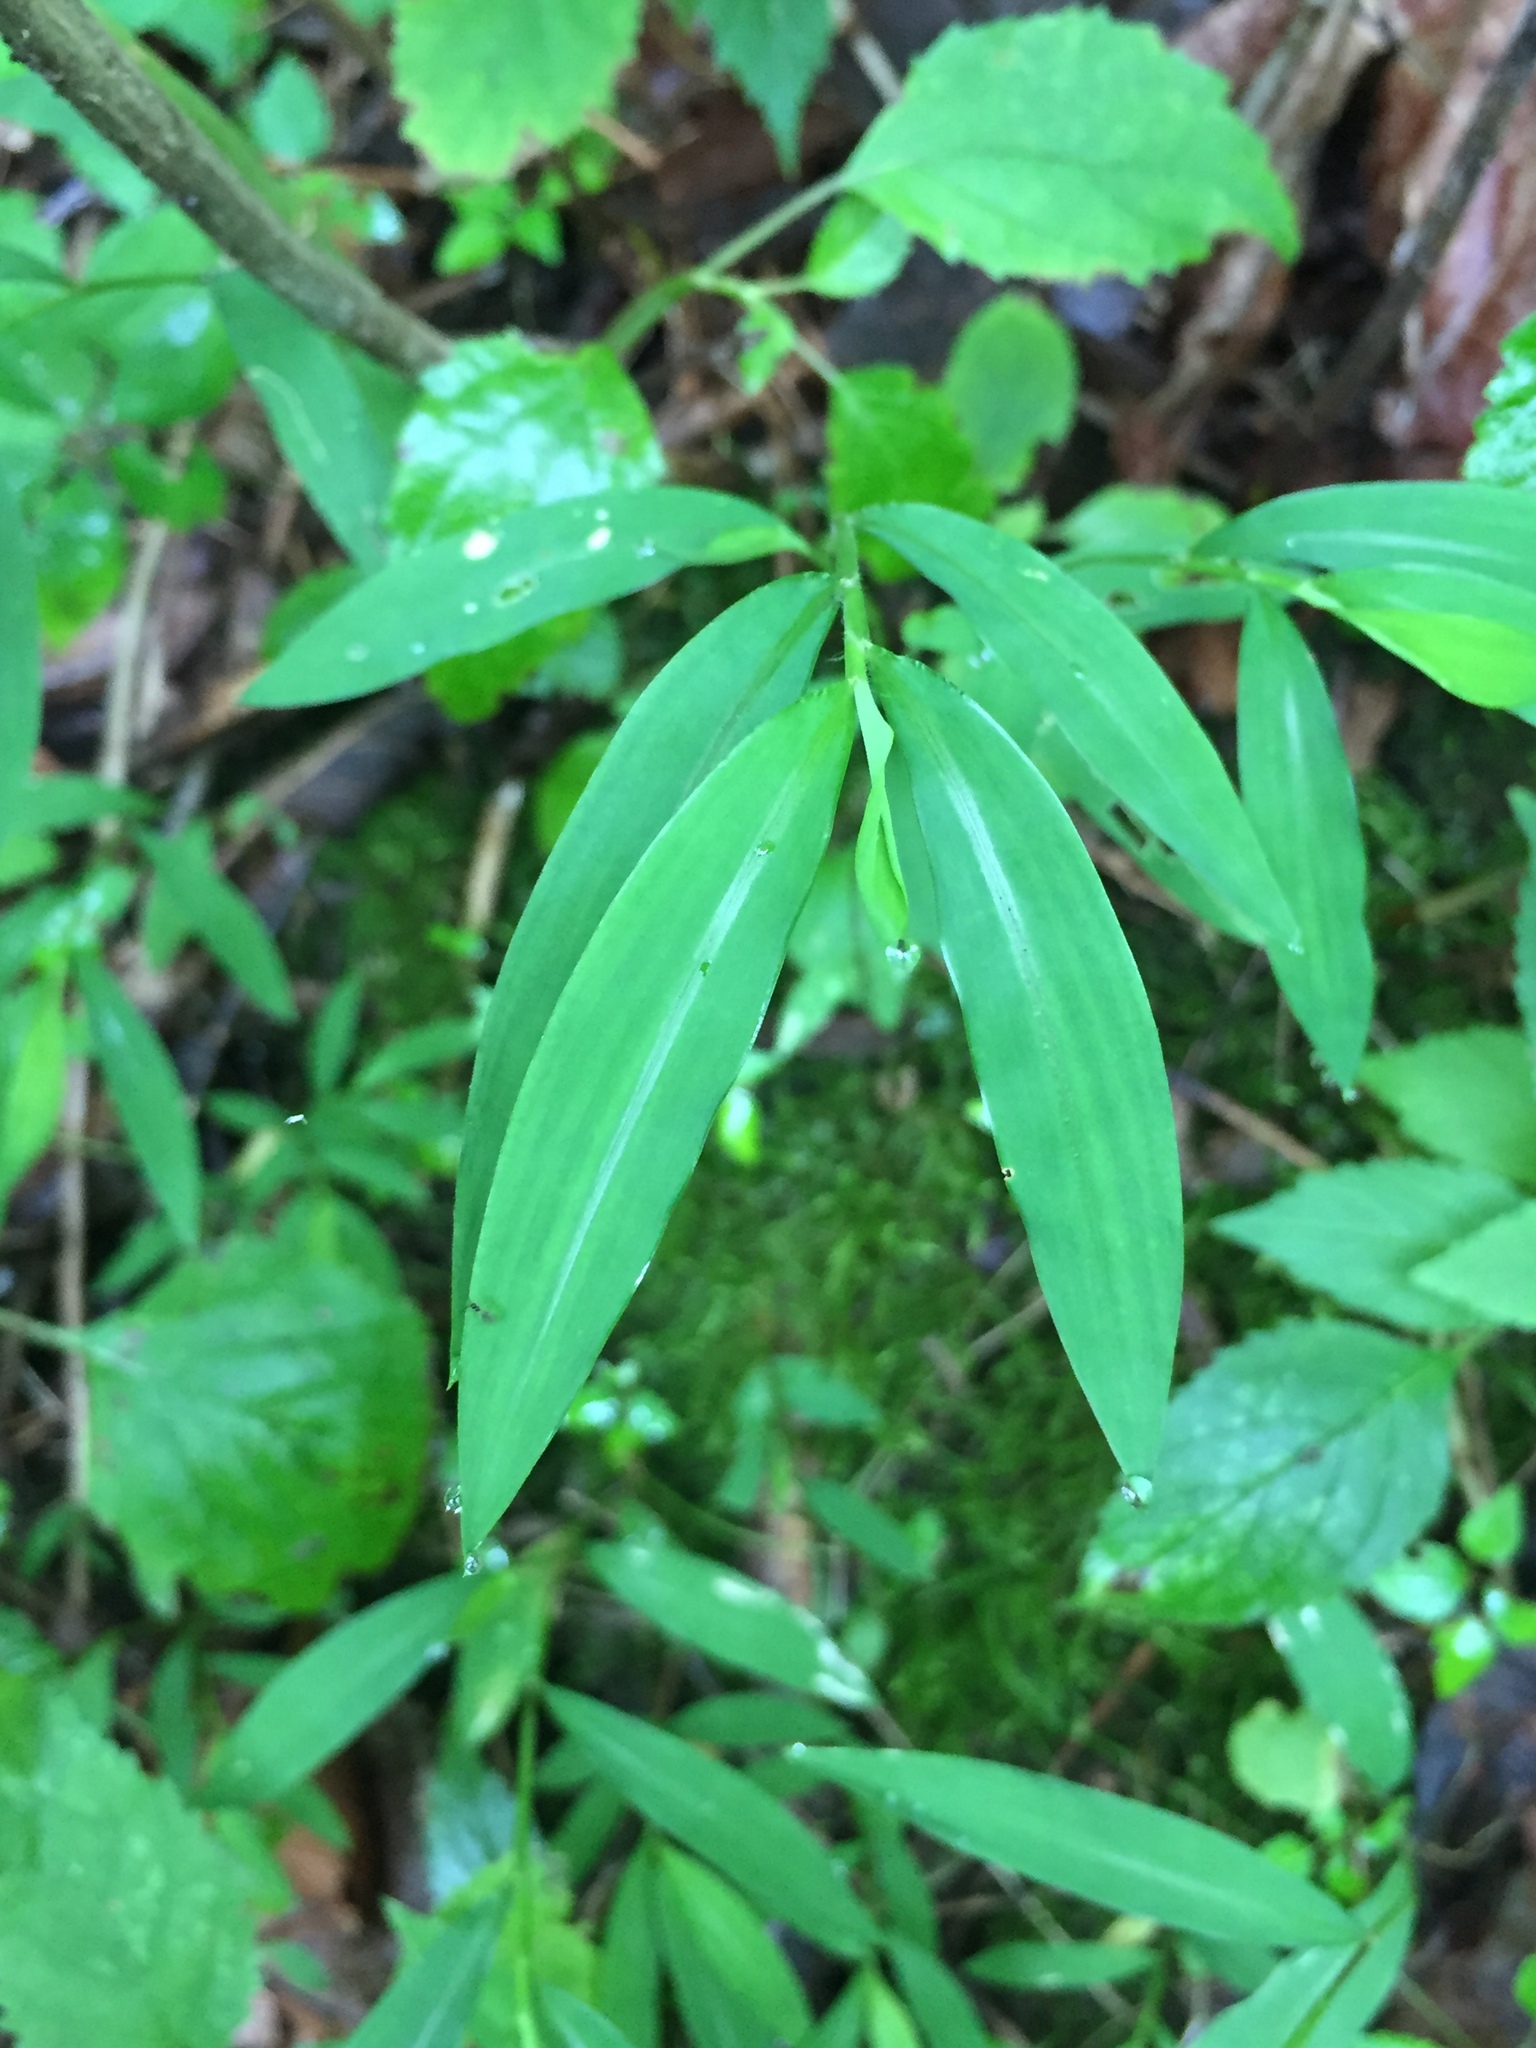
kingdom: Plantae
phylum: Tracheophyta
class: Liliopsida
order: Poales
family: Poaceae
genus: Microstegium
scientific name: Microstegium vimineum
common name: Japanese stiltgrass
